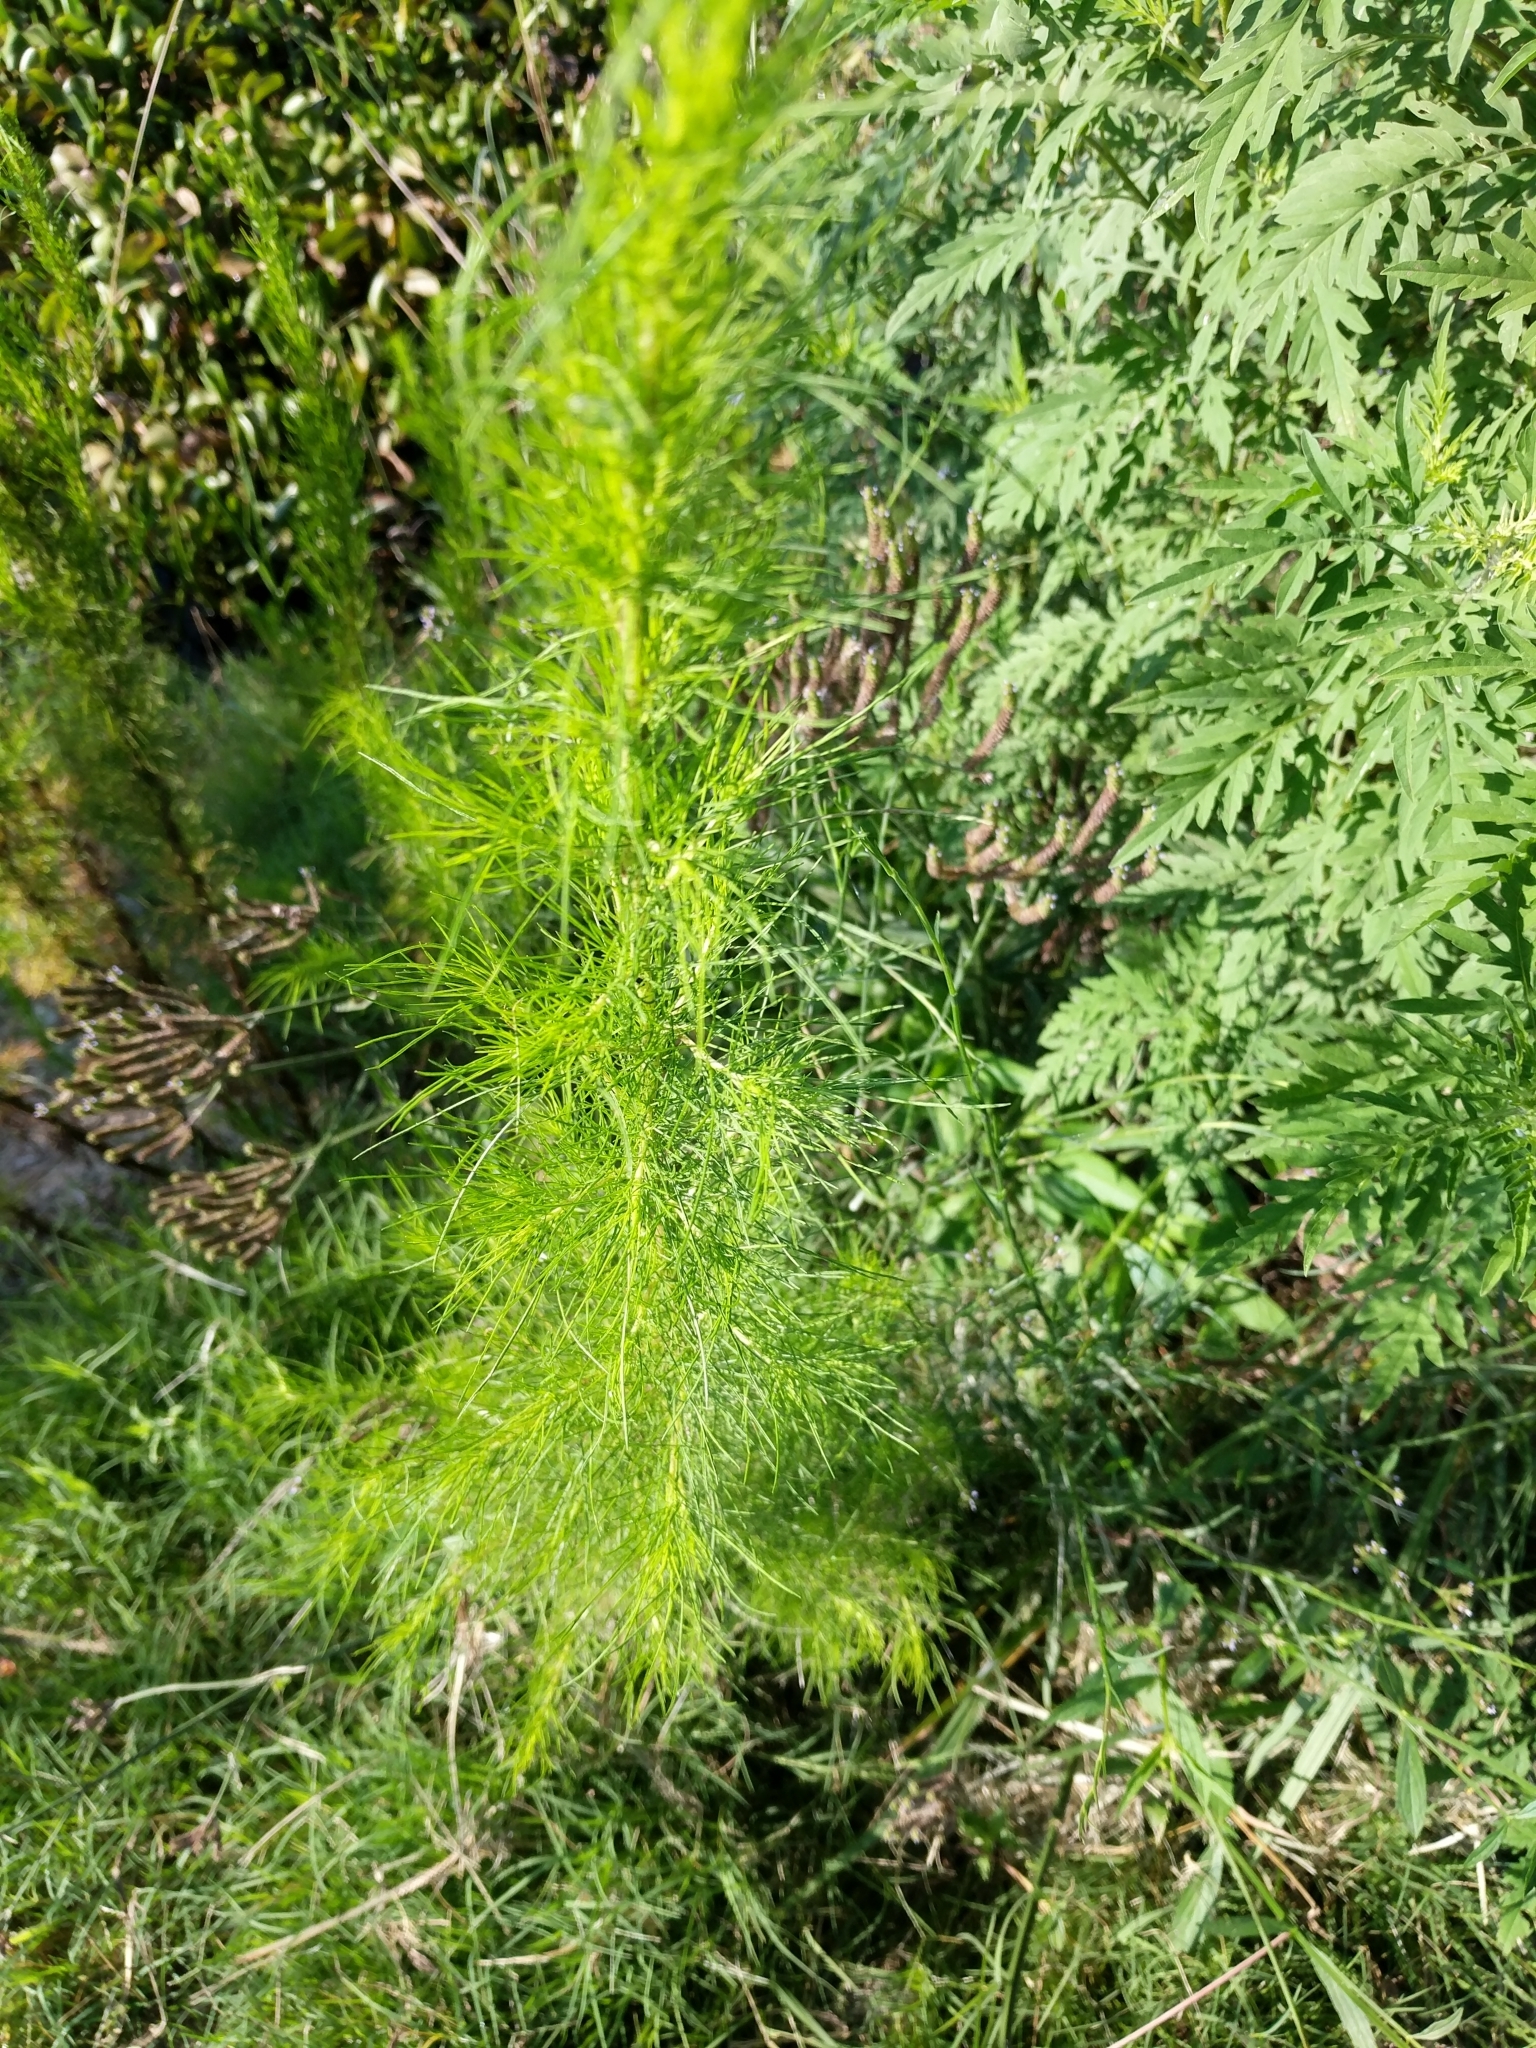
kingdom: Plantae
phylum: Tracheophyta
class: Magnoliopsida
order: Asterales
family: Asteraceae
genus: Eupatorium
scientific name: Eupatorium capillifolium
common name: Dog-fennel
